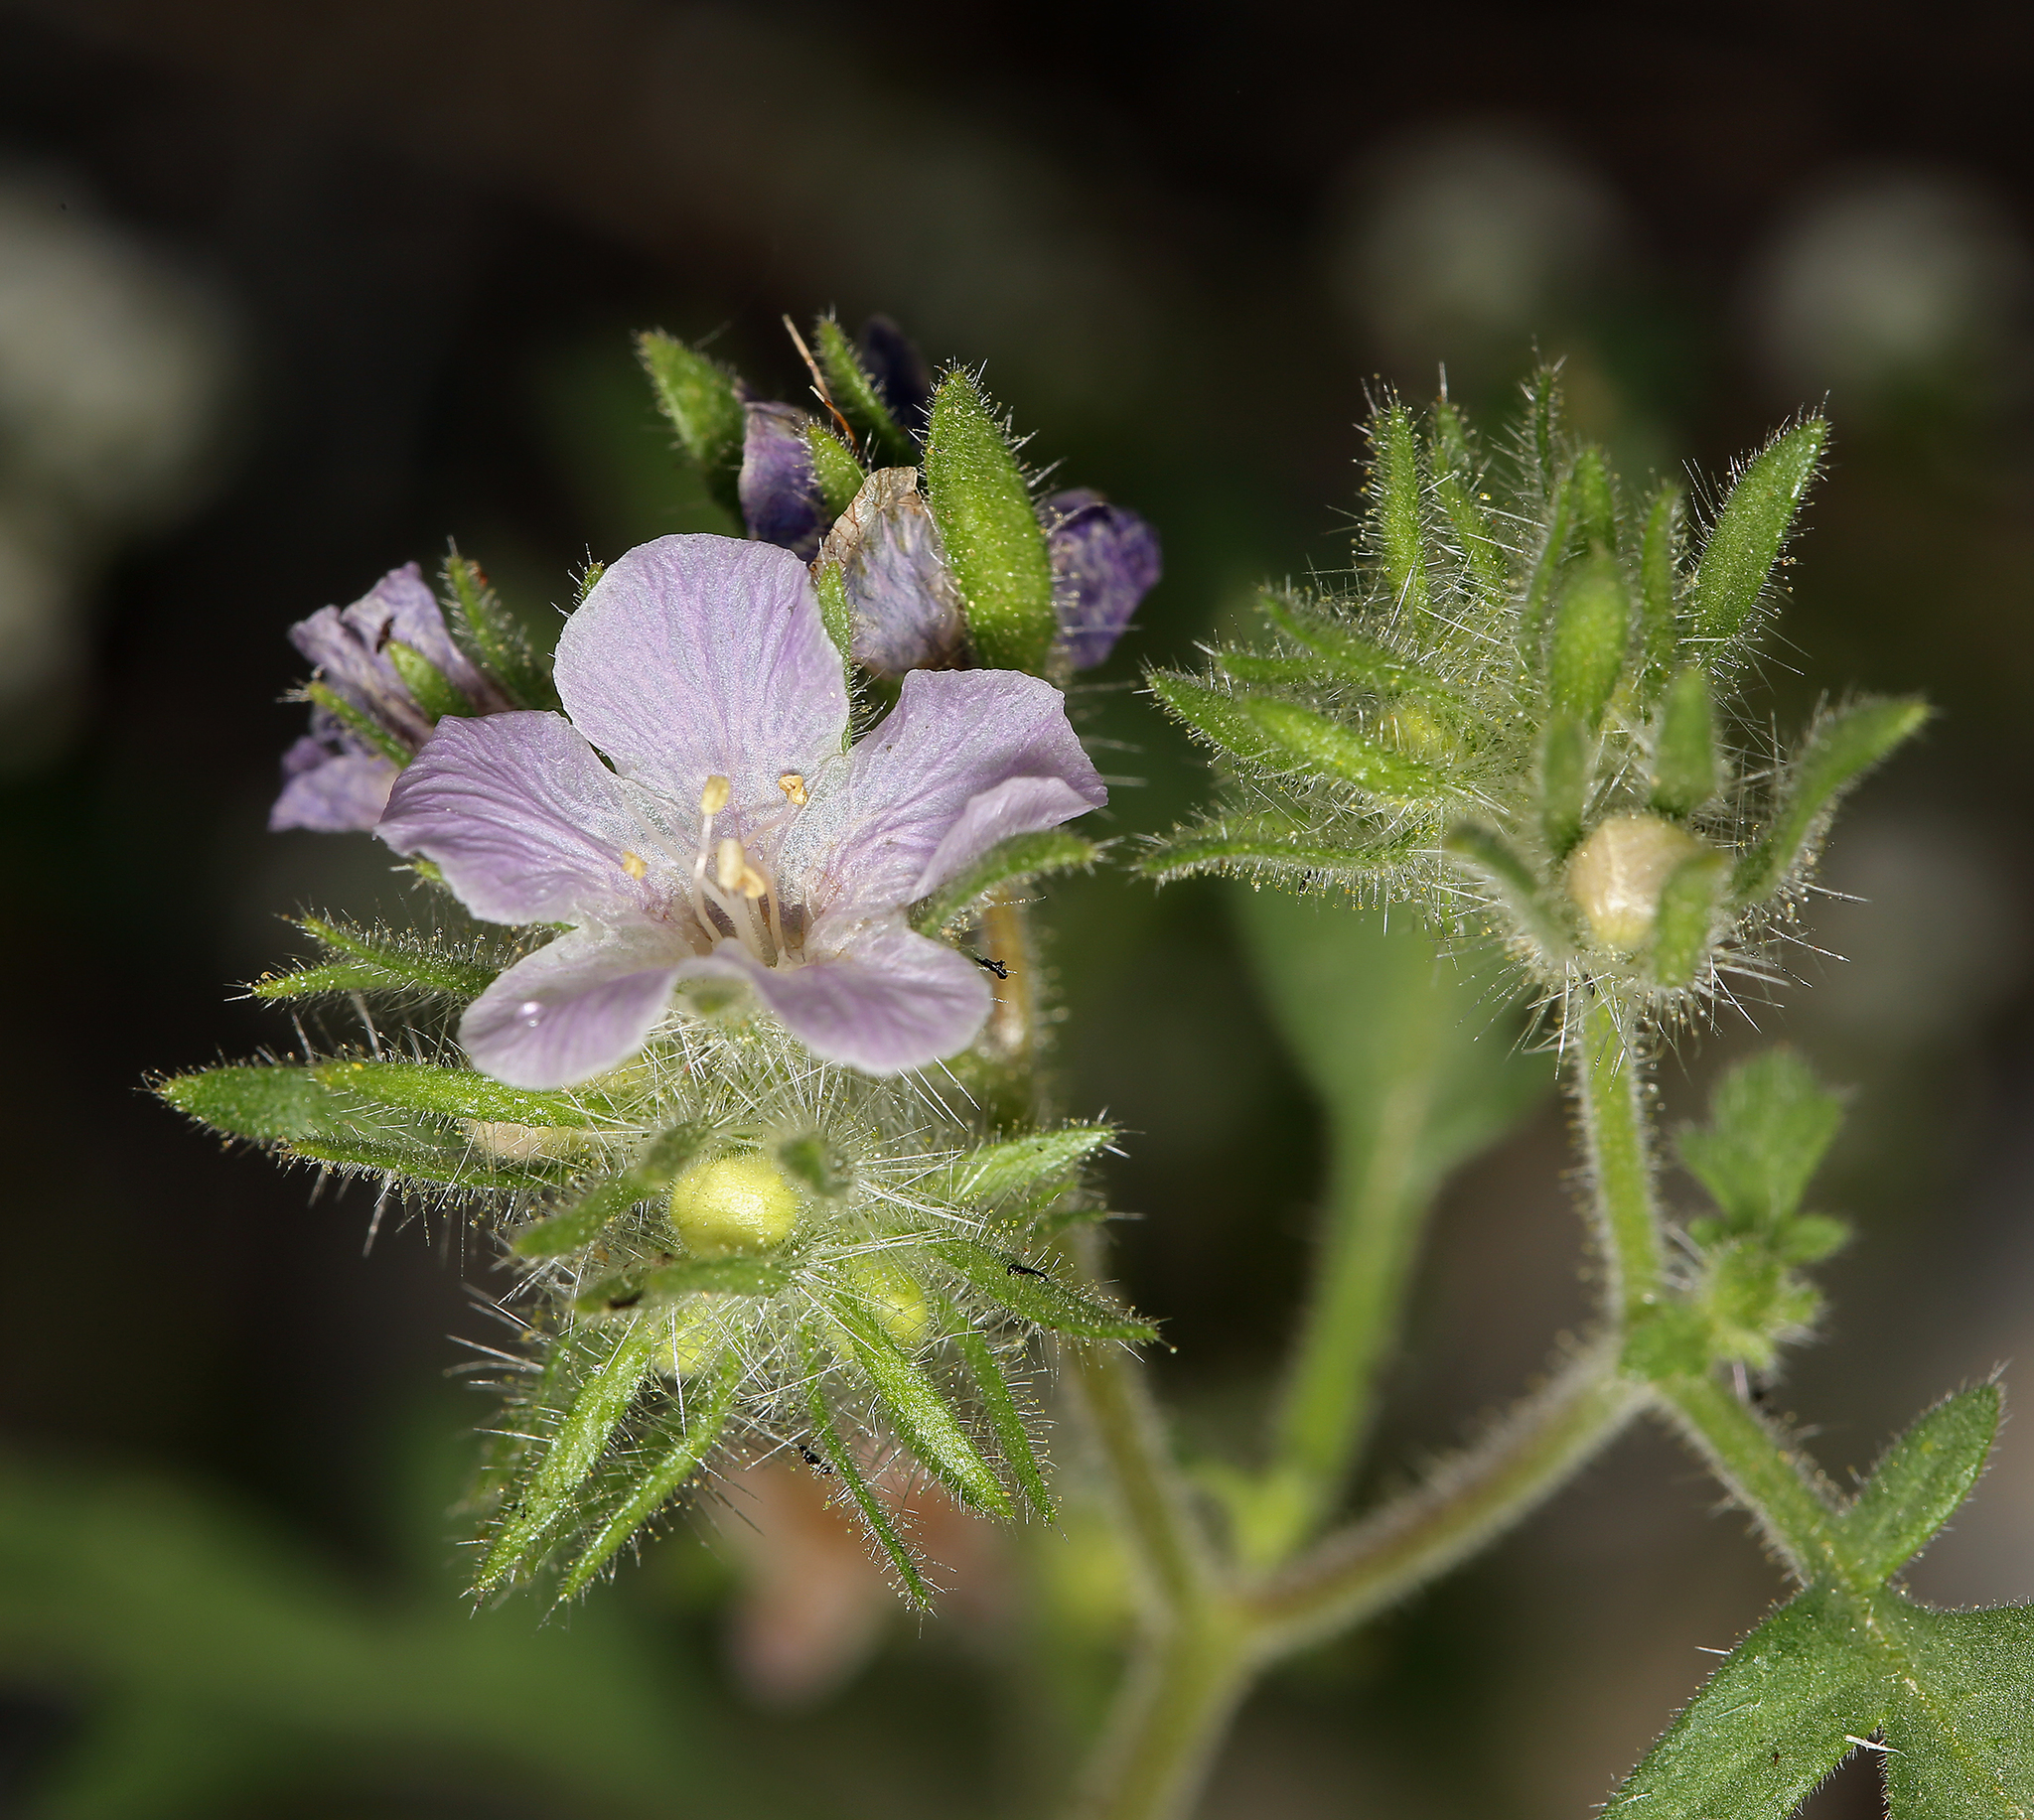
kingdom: Plantae
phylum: Tracheophyta
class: Magnoliopsida
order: Boraginales
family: Hydrophyllaceae
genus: Phacelia
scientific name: Phacelia cryptantha
